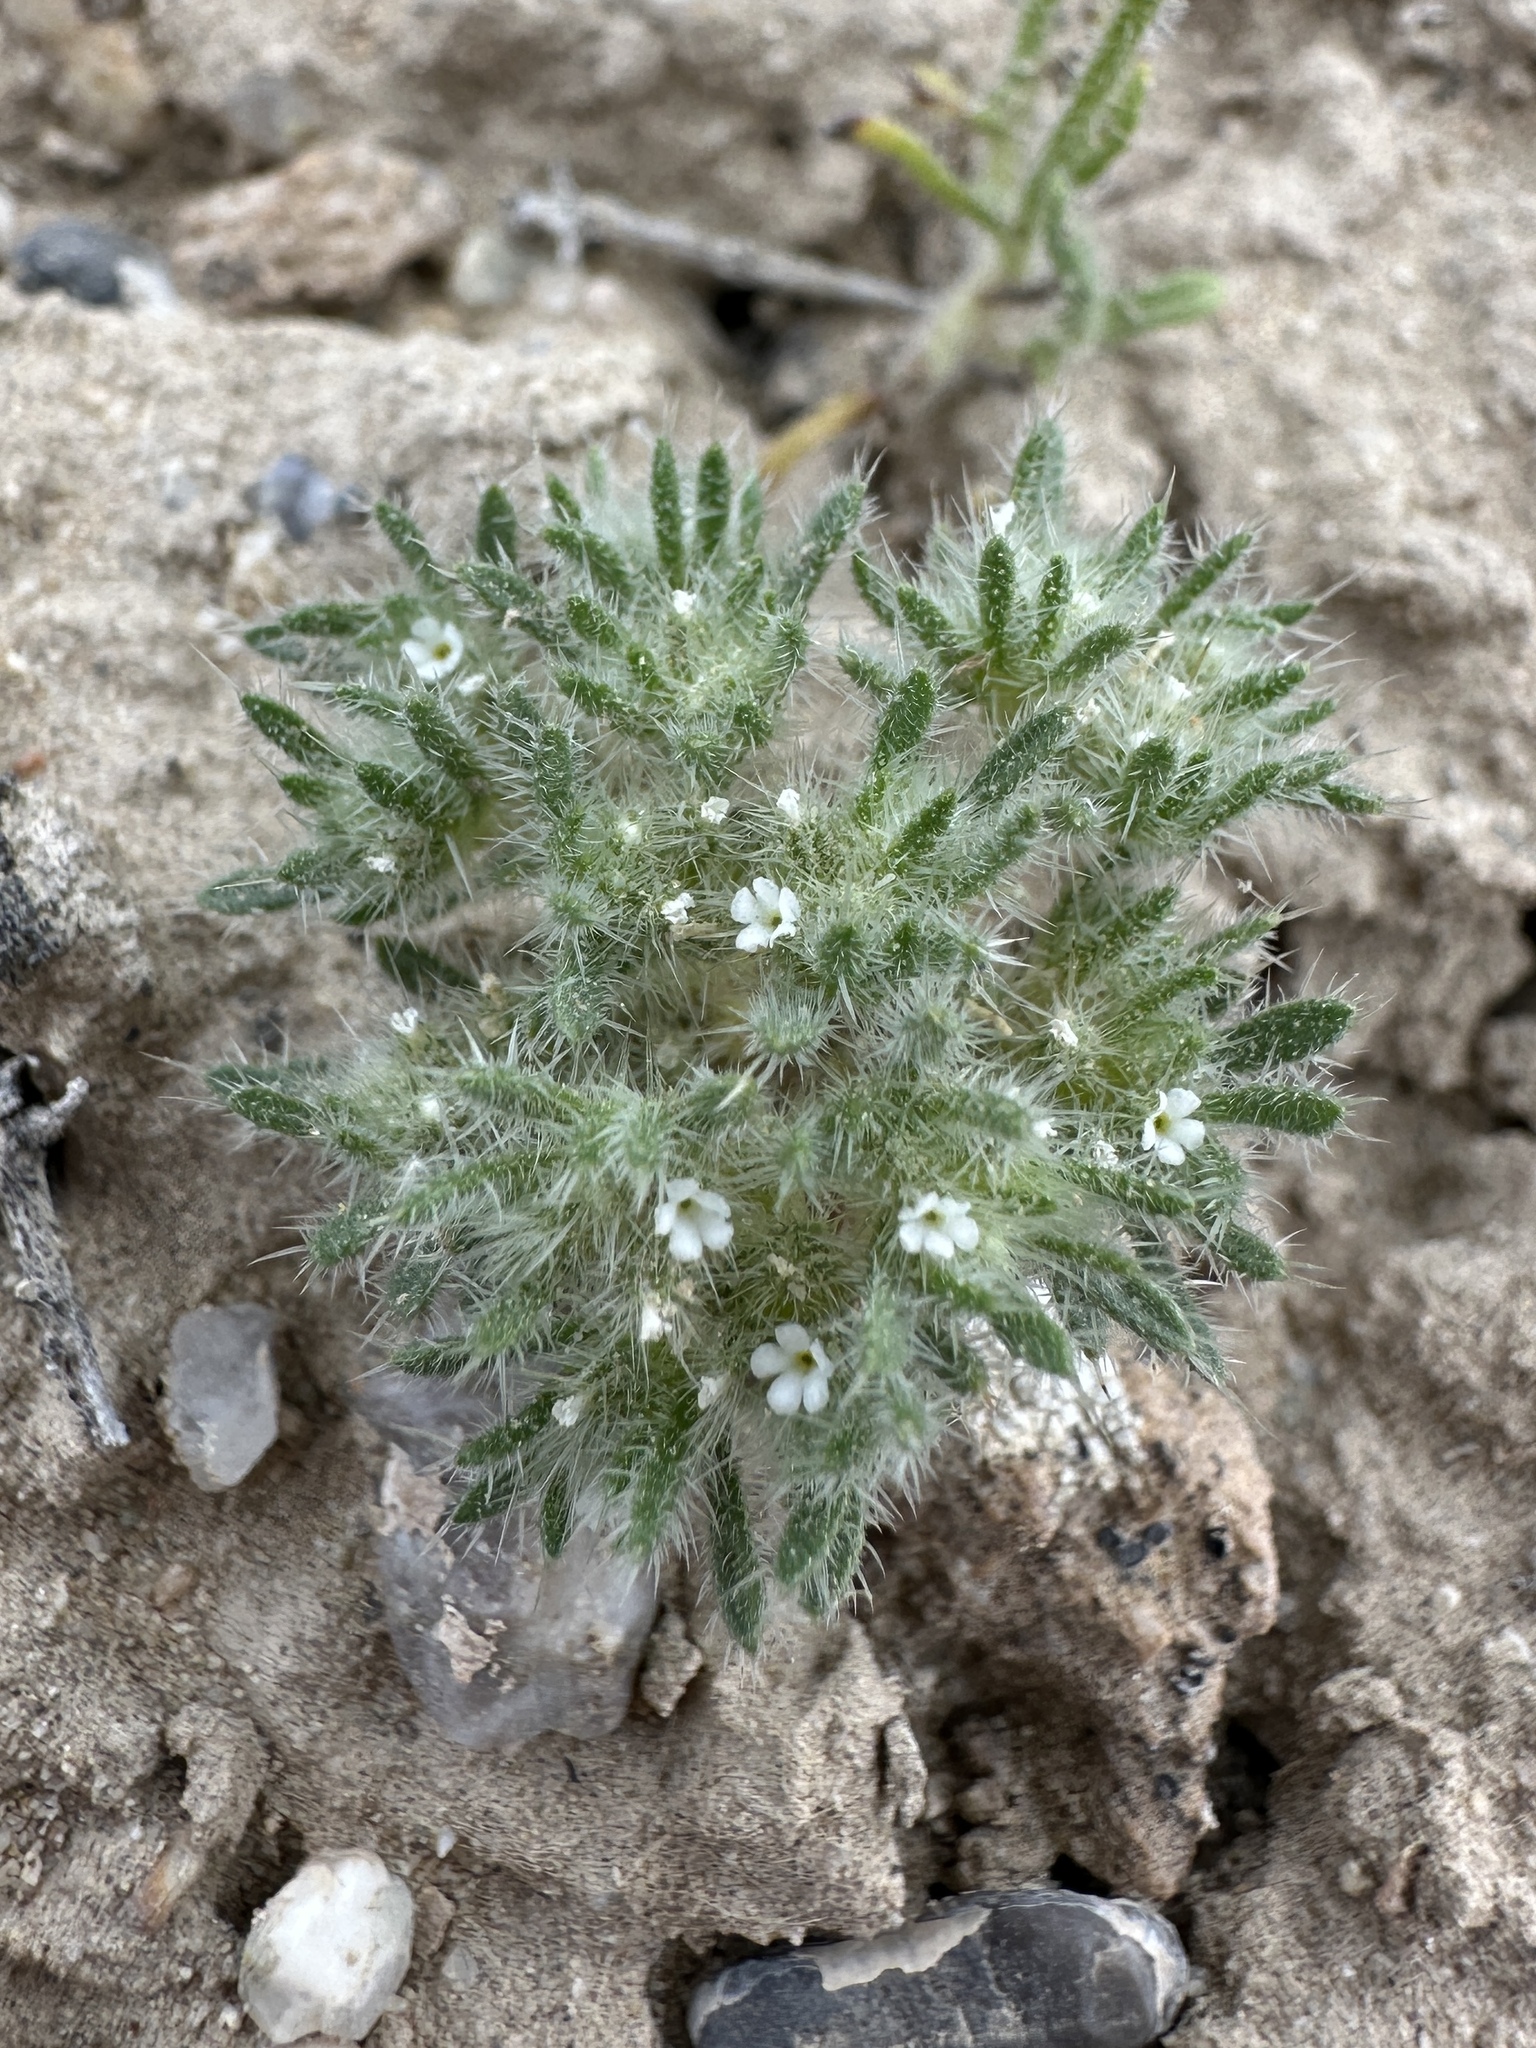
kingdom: Plantae
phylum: Tracheophyta
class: Magnoliopsida
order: Boraginales
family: Boraginaceae
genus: Greeneocharis
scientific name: Greeneocharis circumscissa
